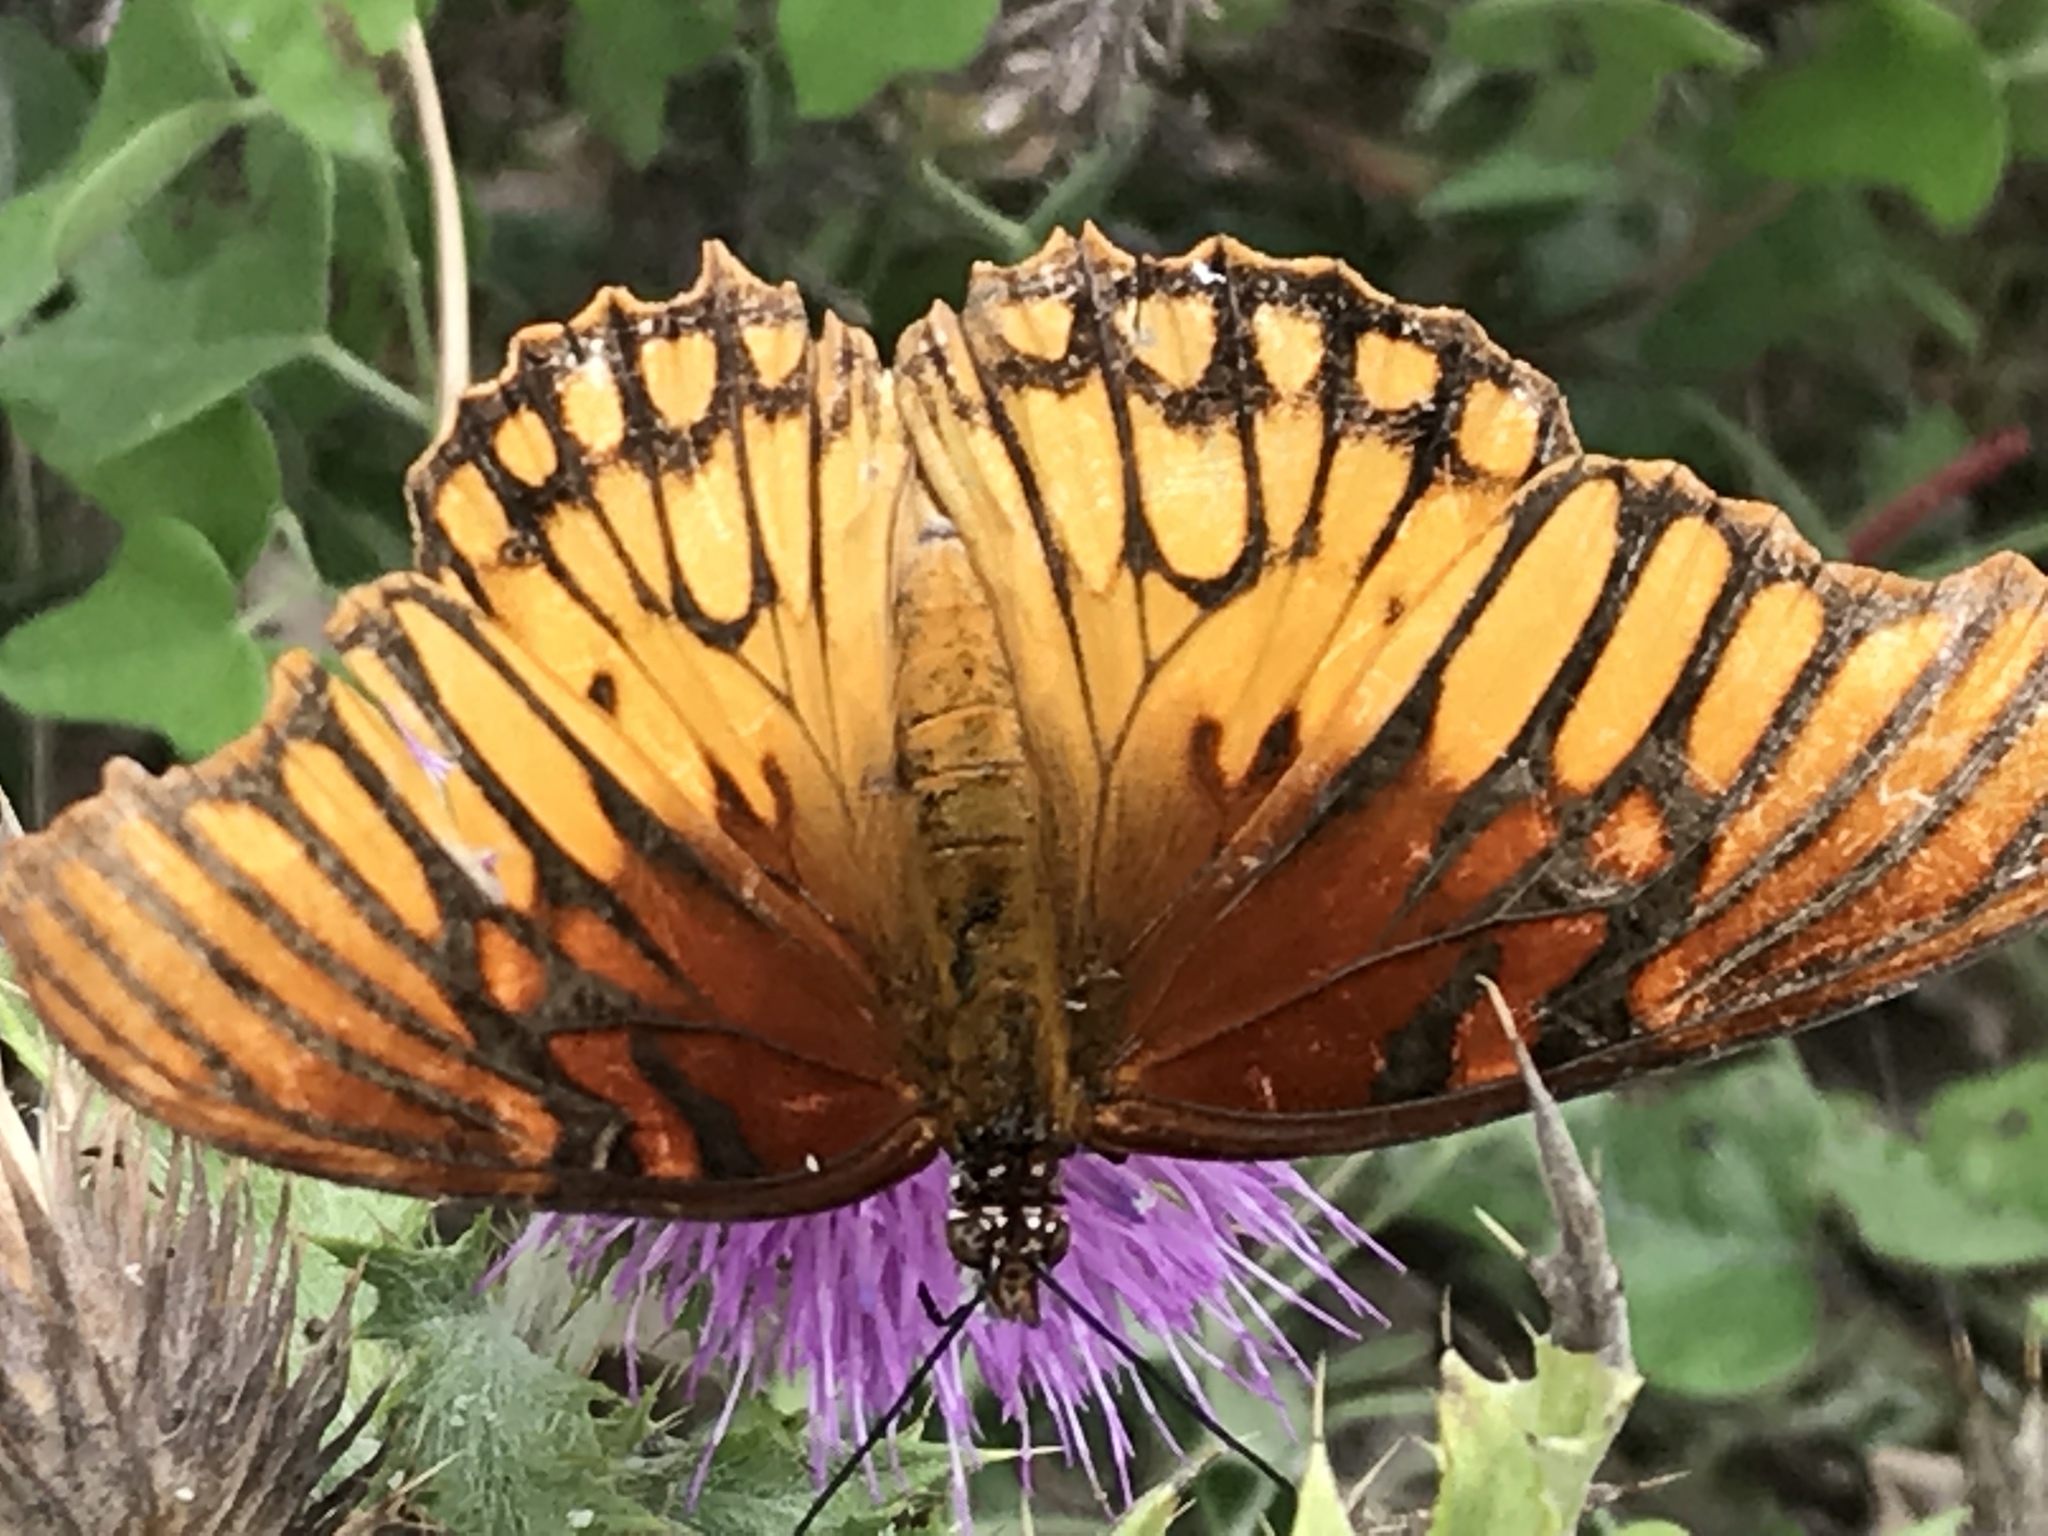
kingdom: Animalia
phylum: Arthropoda
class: Insecta
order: Lepidoptera
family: Nymphalidae
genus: Dione
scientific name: Dione moneta
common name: Mexican silverspot
